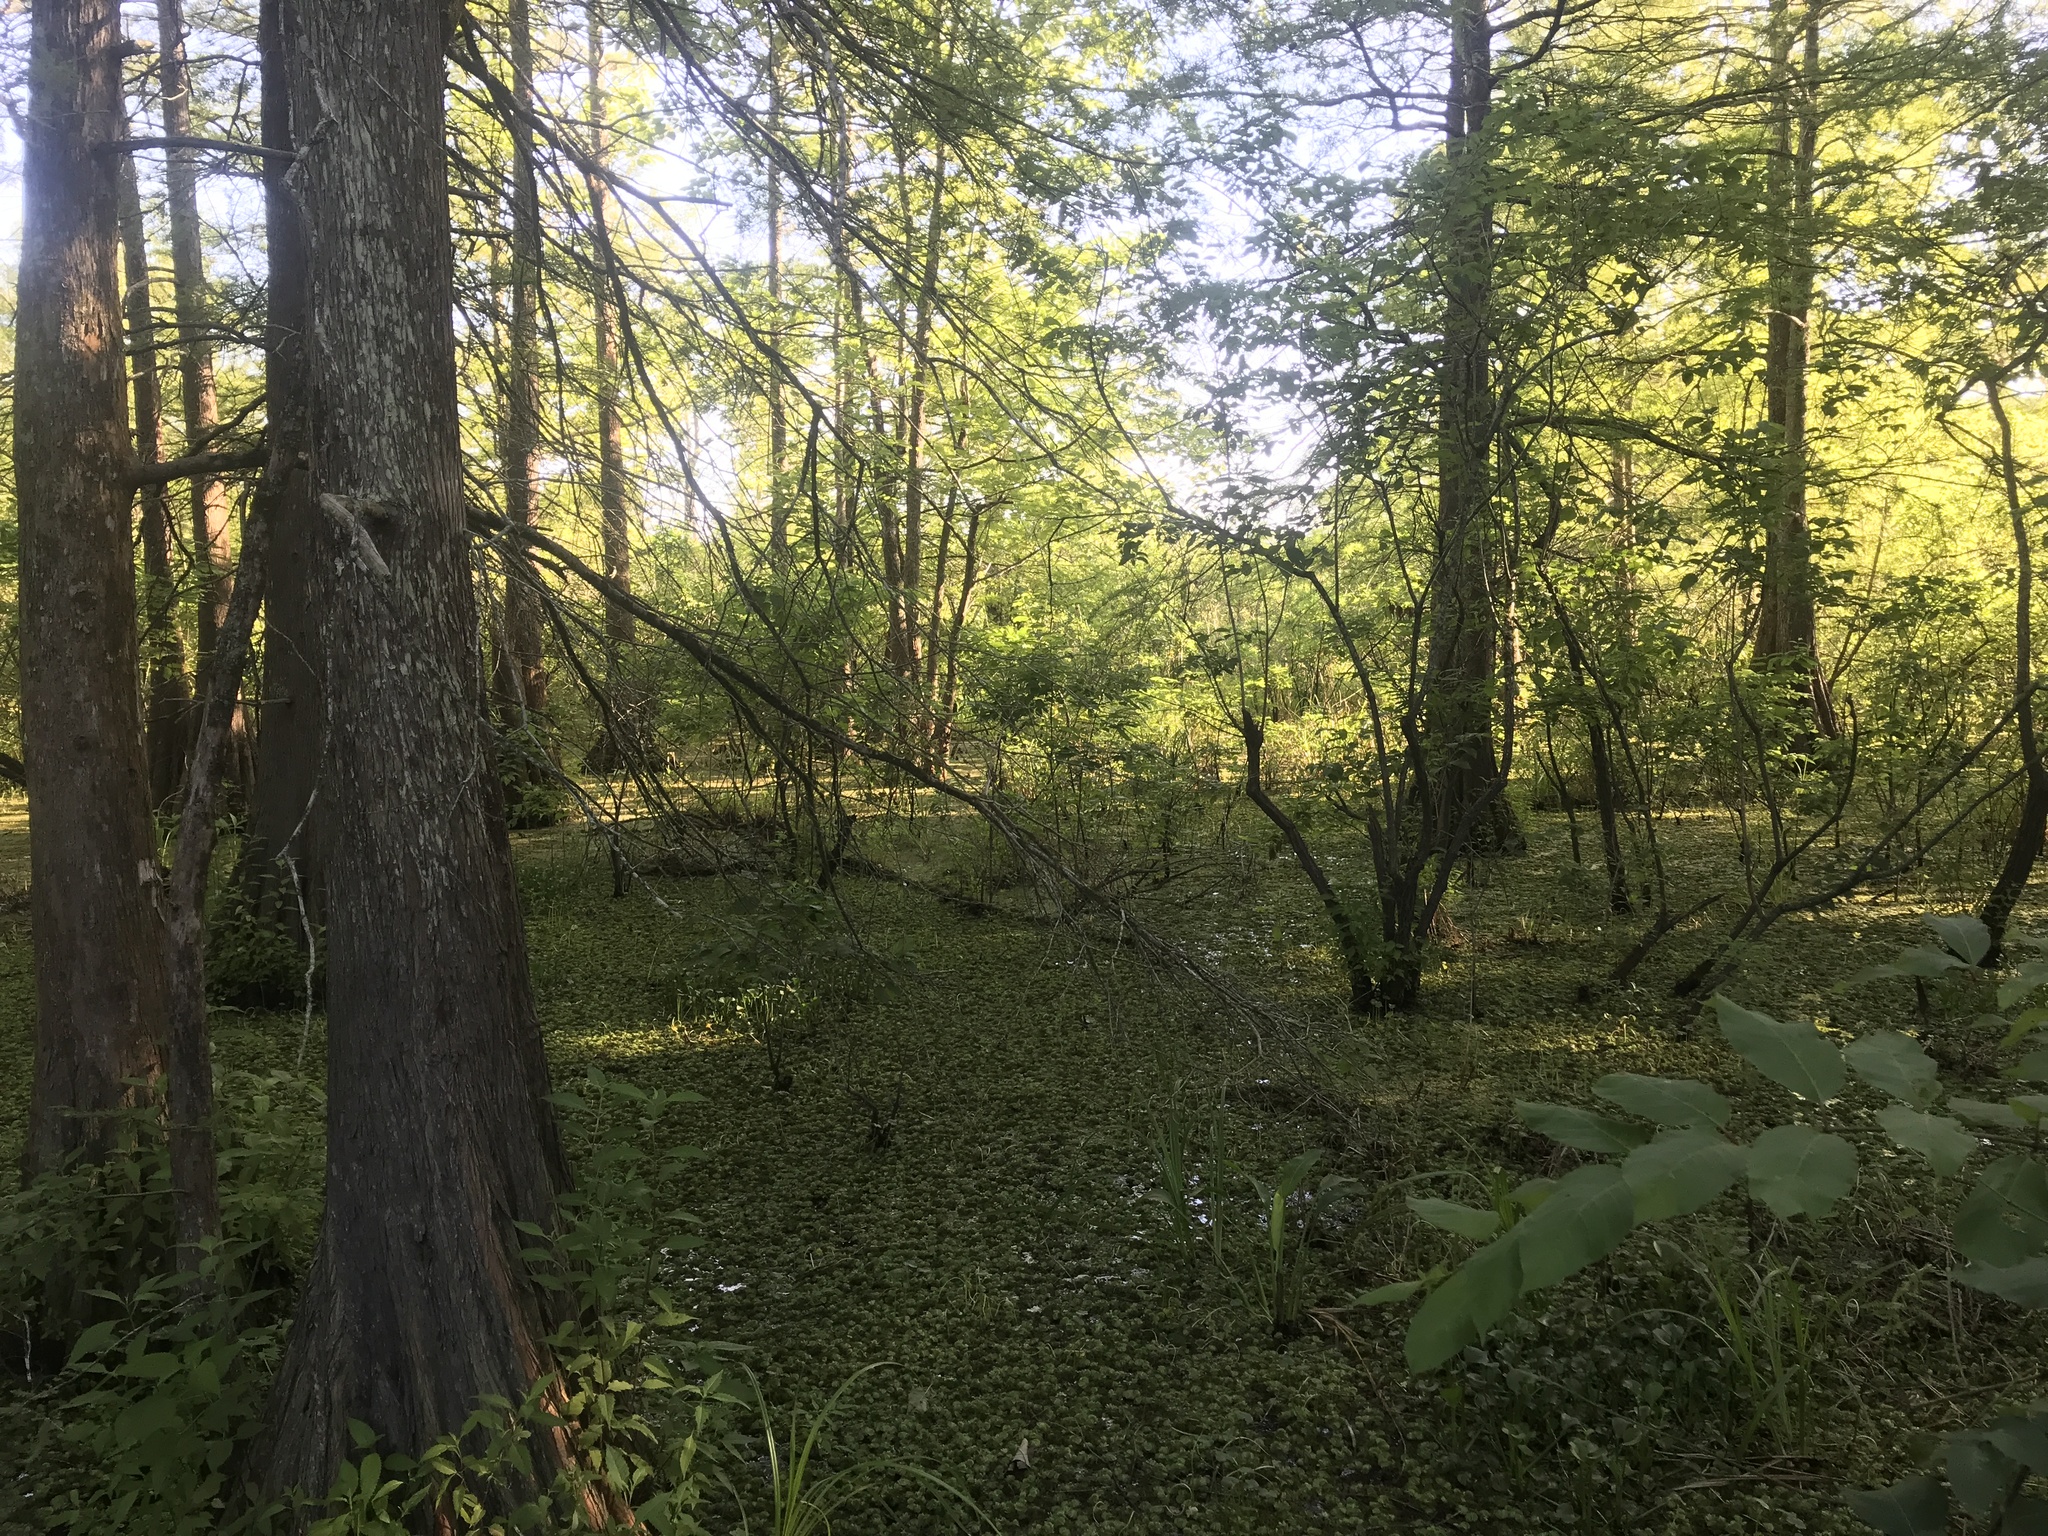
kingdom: Animalia
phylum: Chordata
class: Amphibia
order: Anura
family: Ranidae
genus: Lithobates
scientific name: Lithobates grylio
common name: Pig frog
